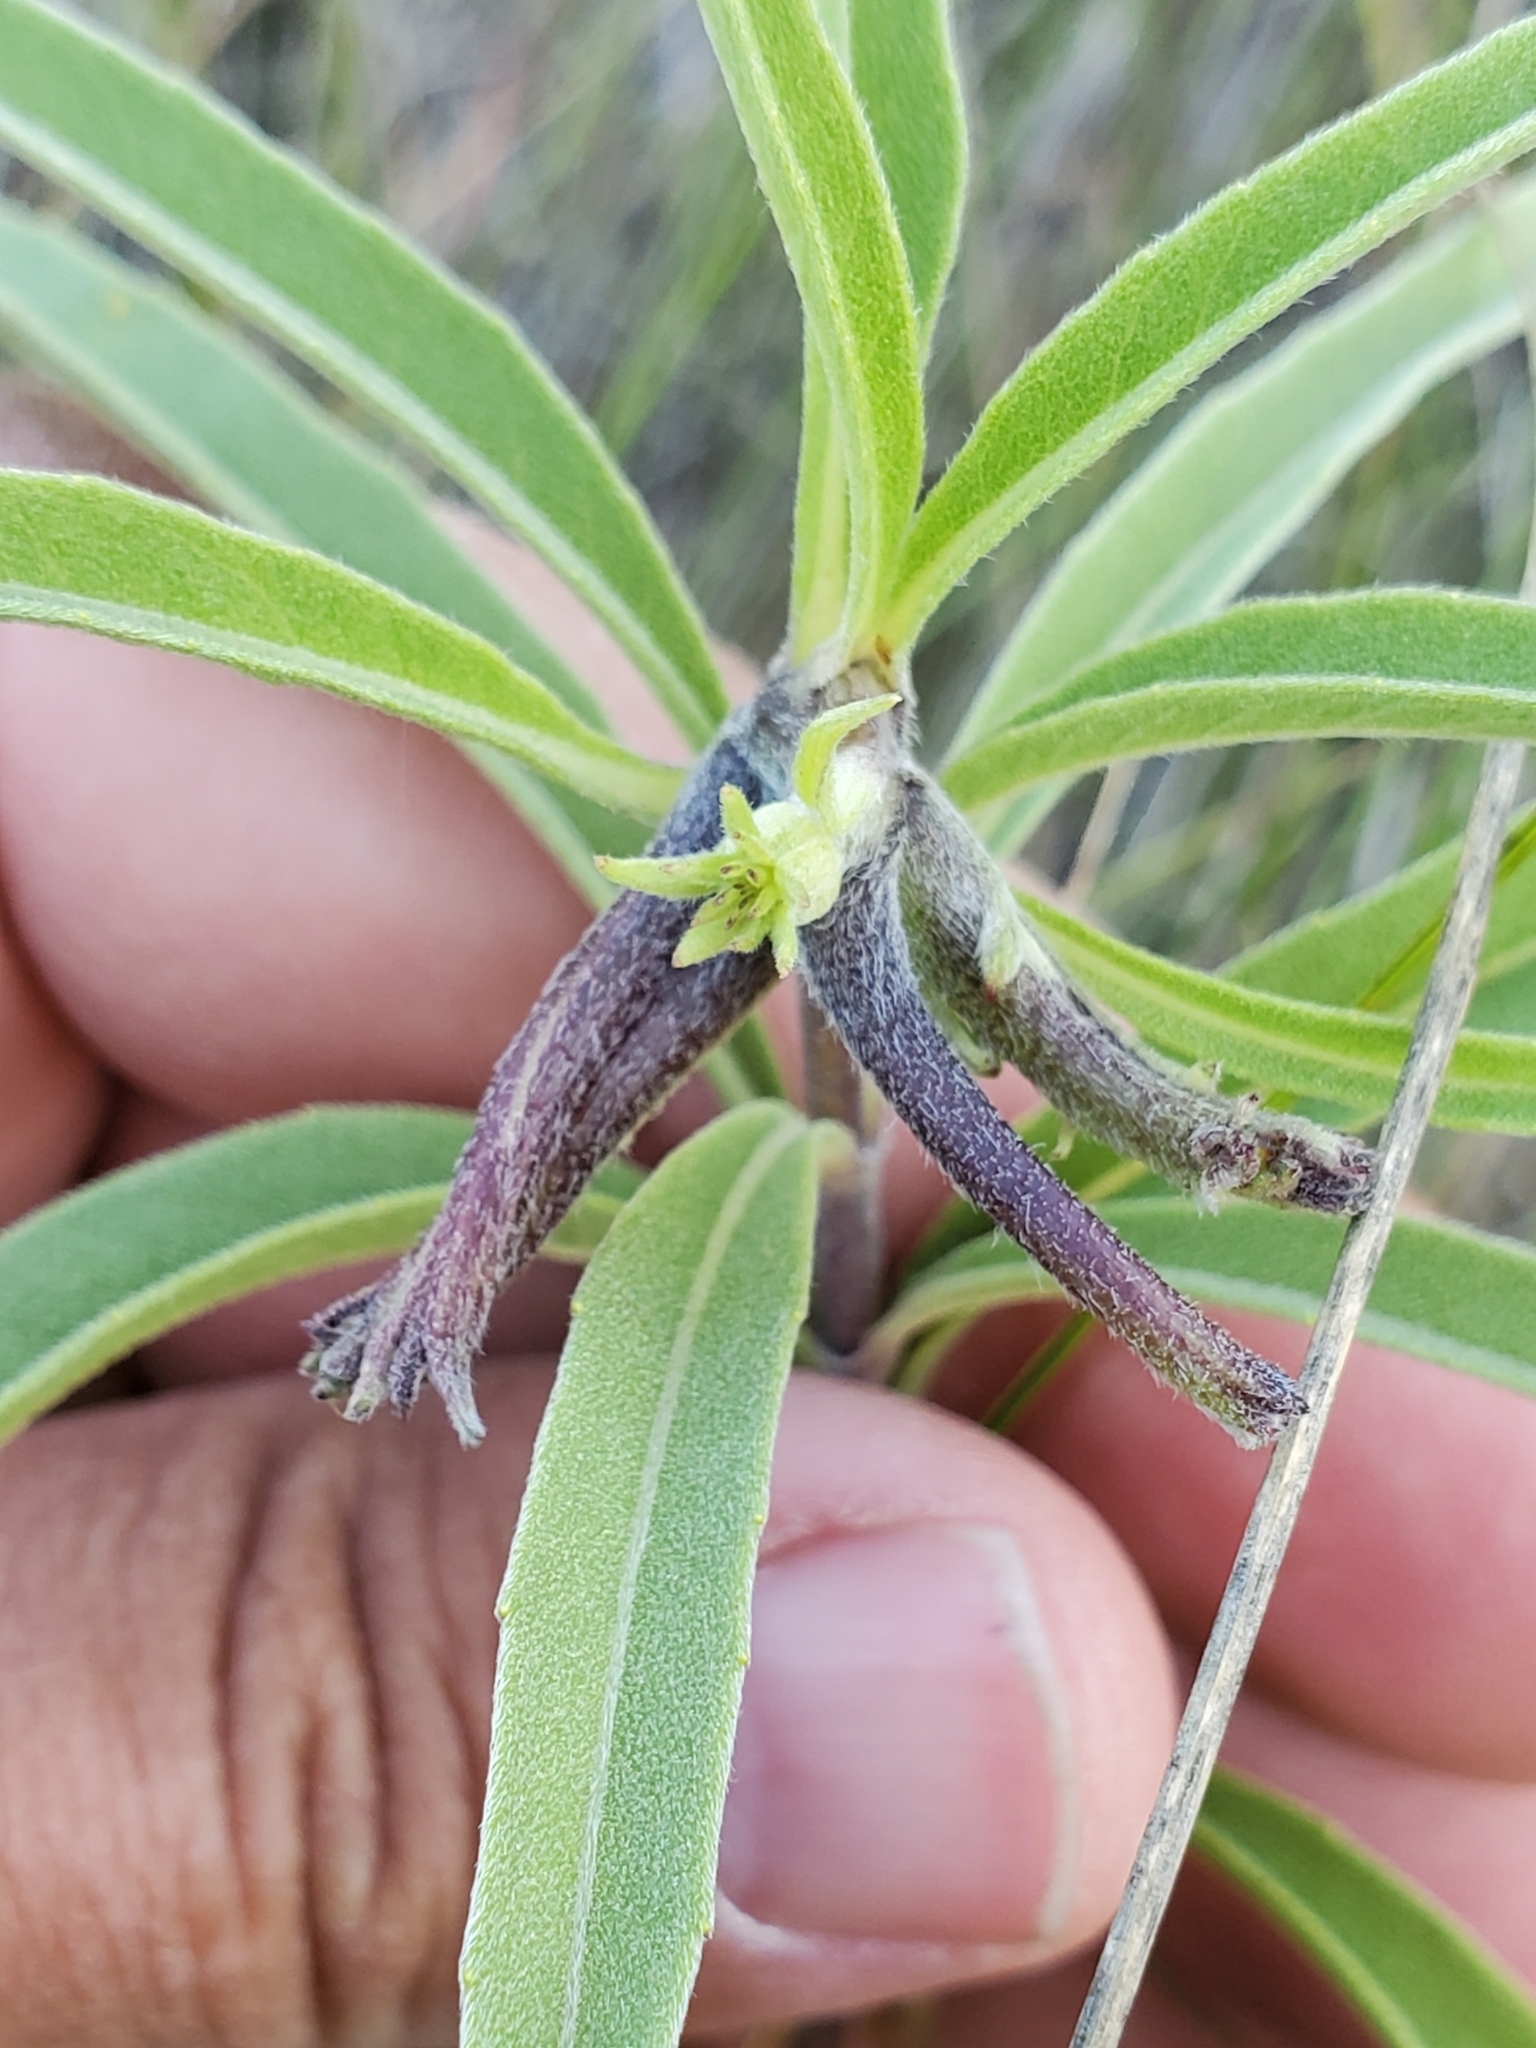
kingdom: Animalia
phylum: Arthropoda
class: Insecta
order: Diptera
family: Cecidomyiidae
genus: Olpodiplosis
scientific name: Olpodiplosis helianthi
